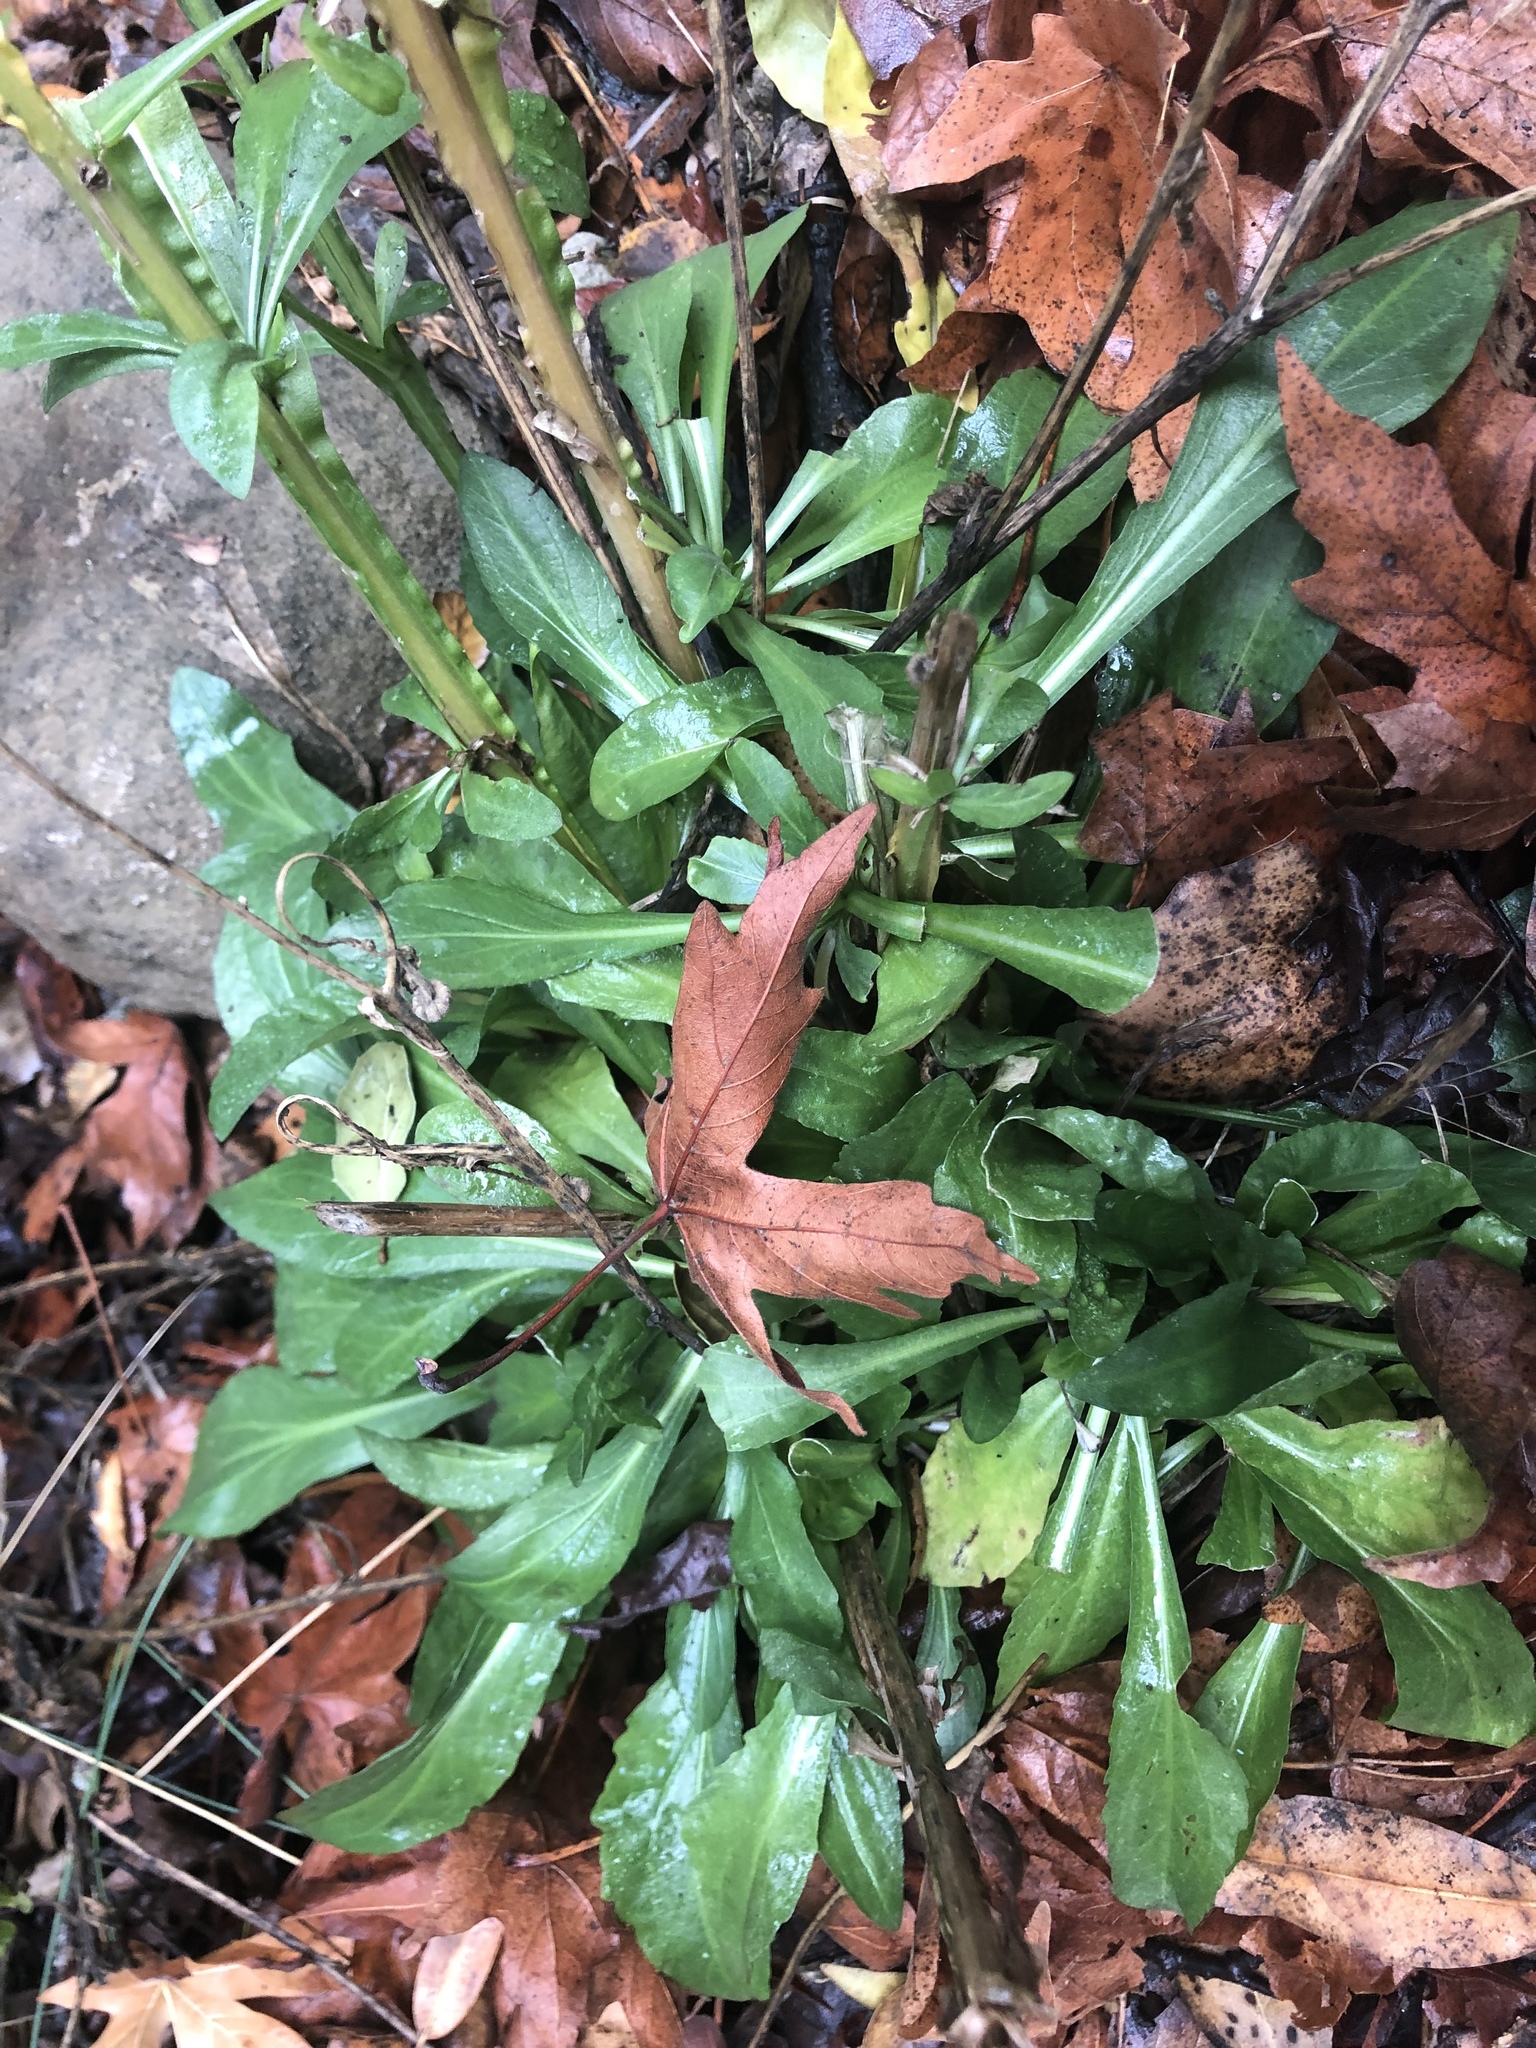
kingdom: Plantae
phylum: Tracheophyta
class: Magnoliopsida
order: Asterales
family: Asteraceae
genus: Helenium
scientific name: Helenium puberulum
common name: Sneezewort
